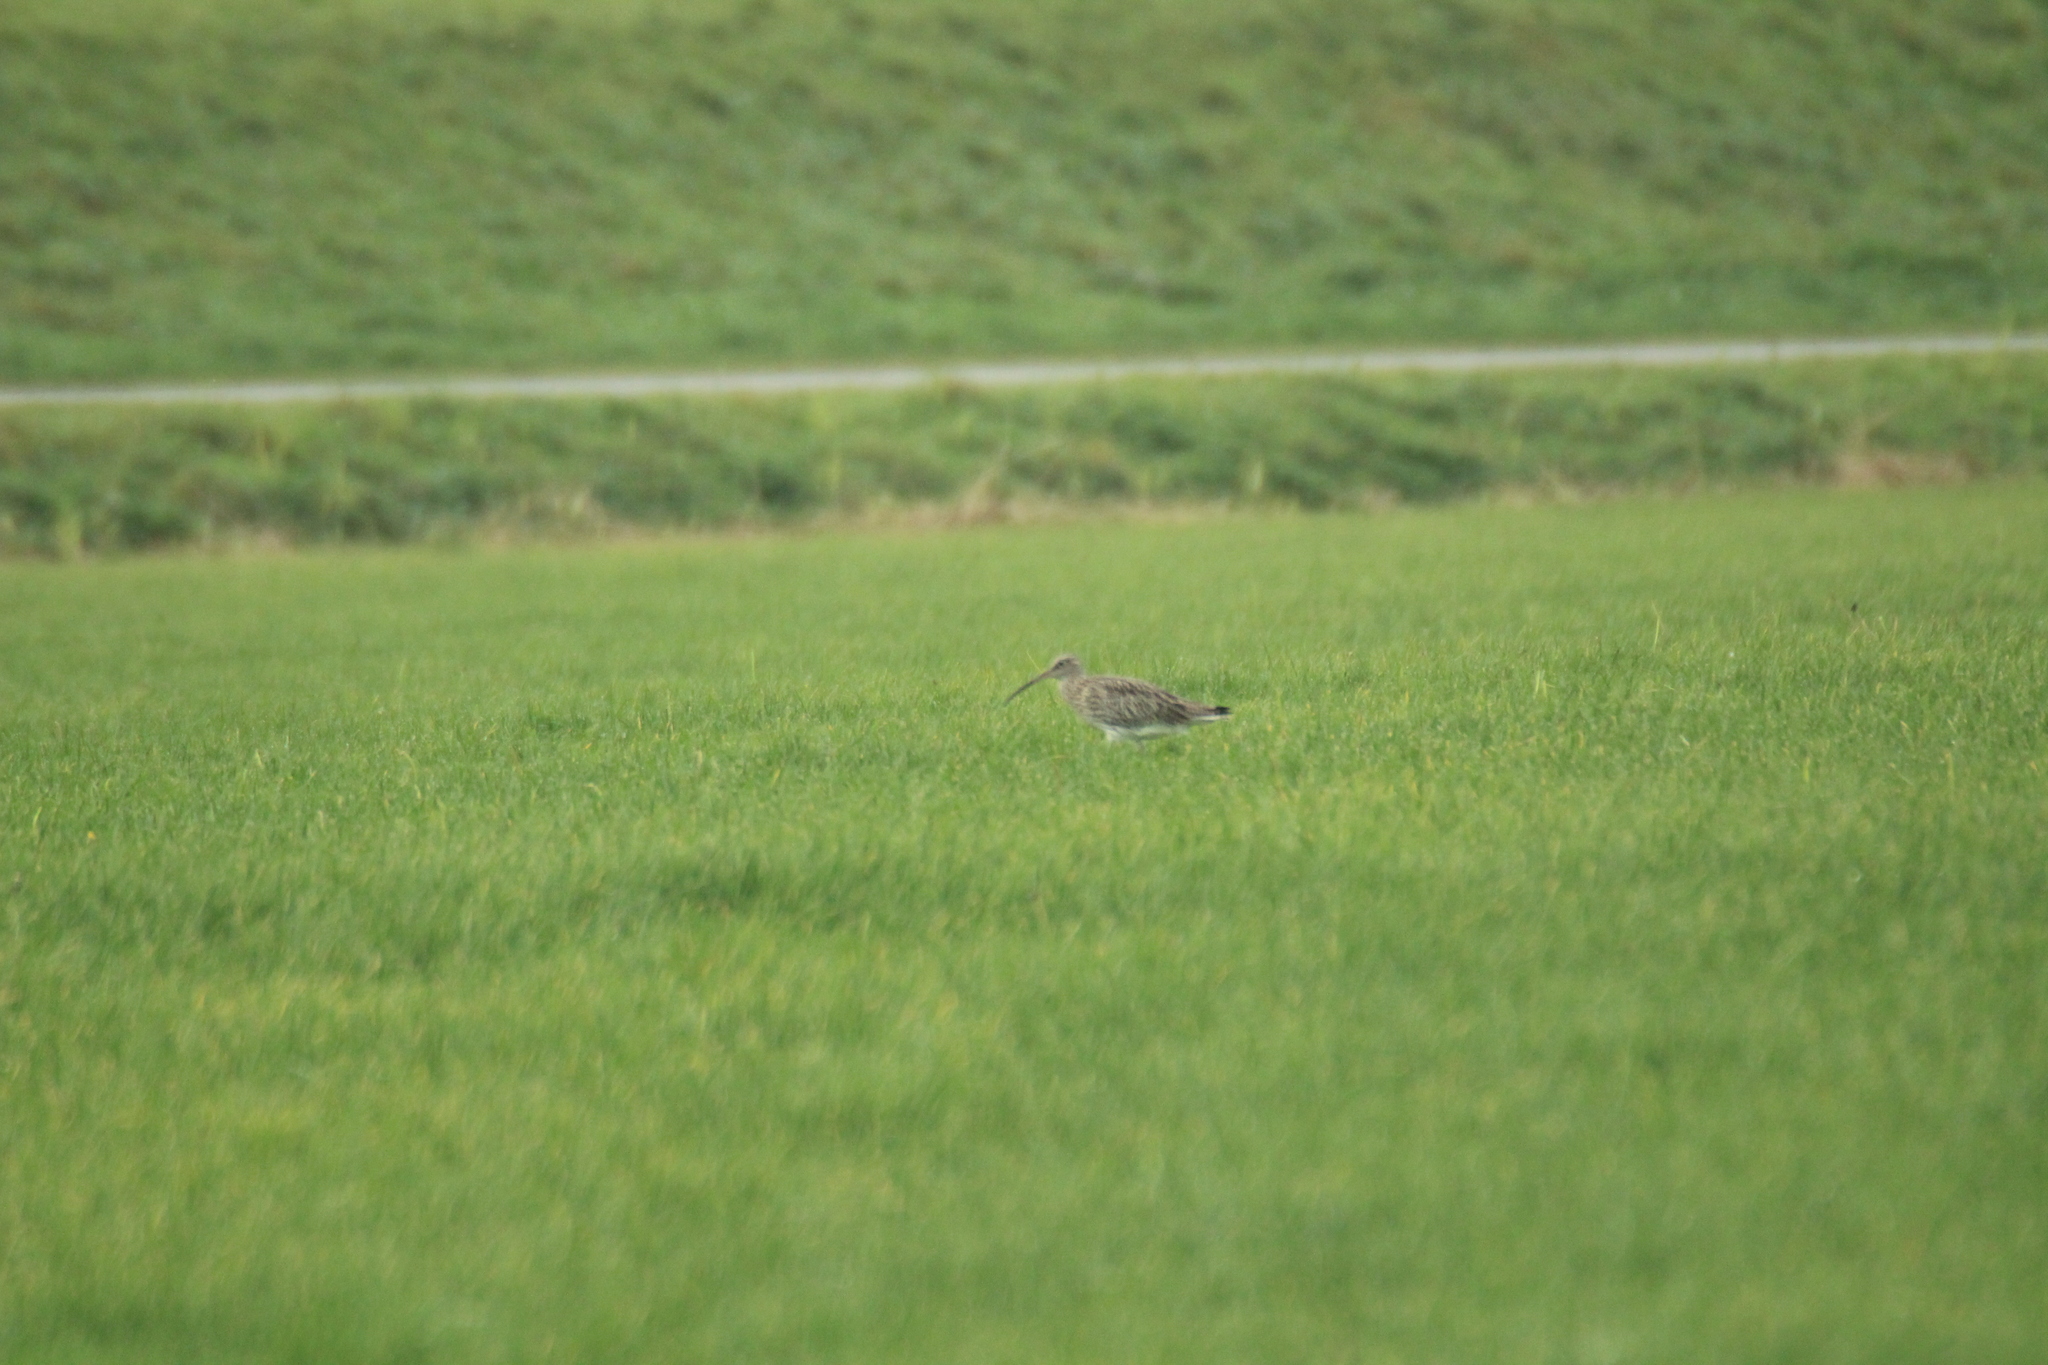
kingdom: Animalia
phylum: Chordata
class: Aves
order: Charadriiformes
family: Scolopacidae
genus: Numenius
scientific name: Numenius arquata
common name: Eurasian curlew
